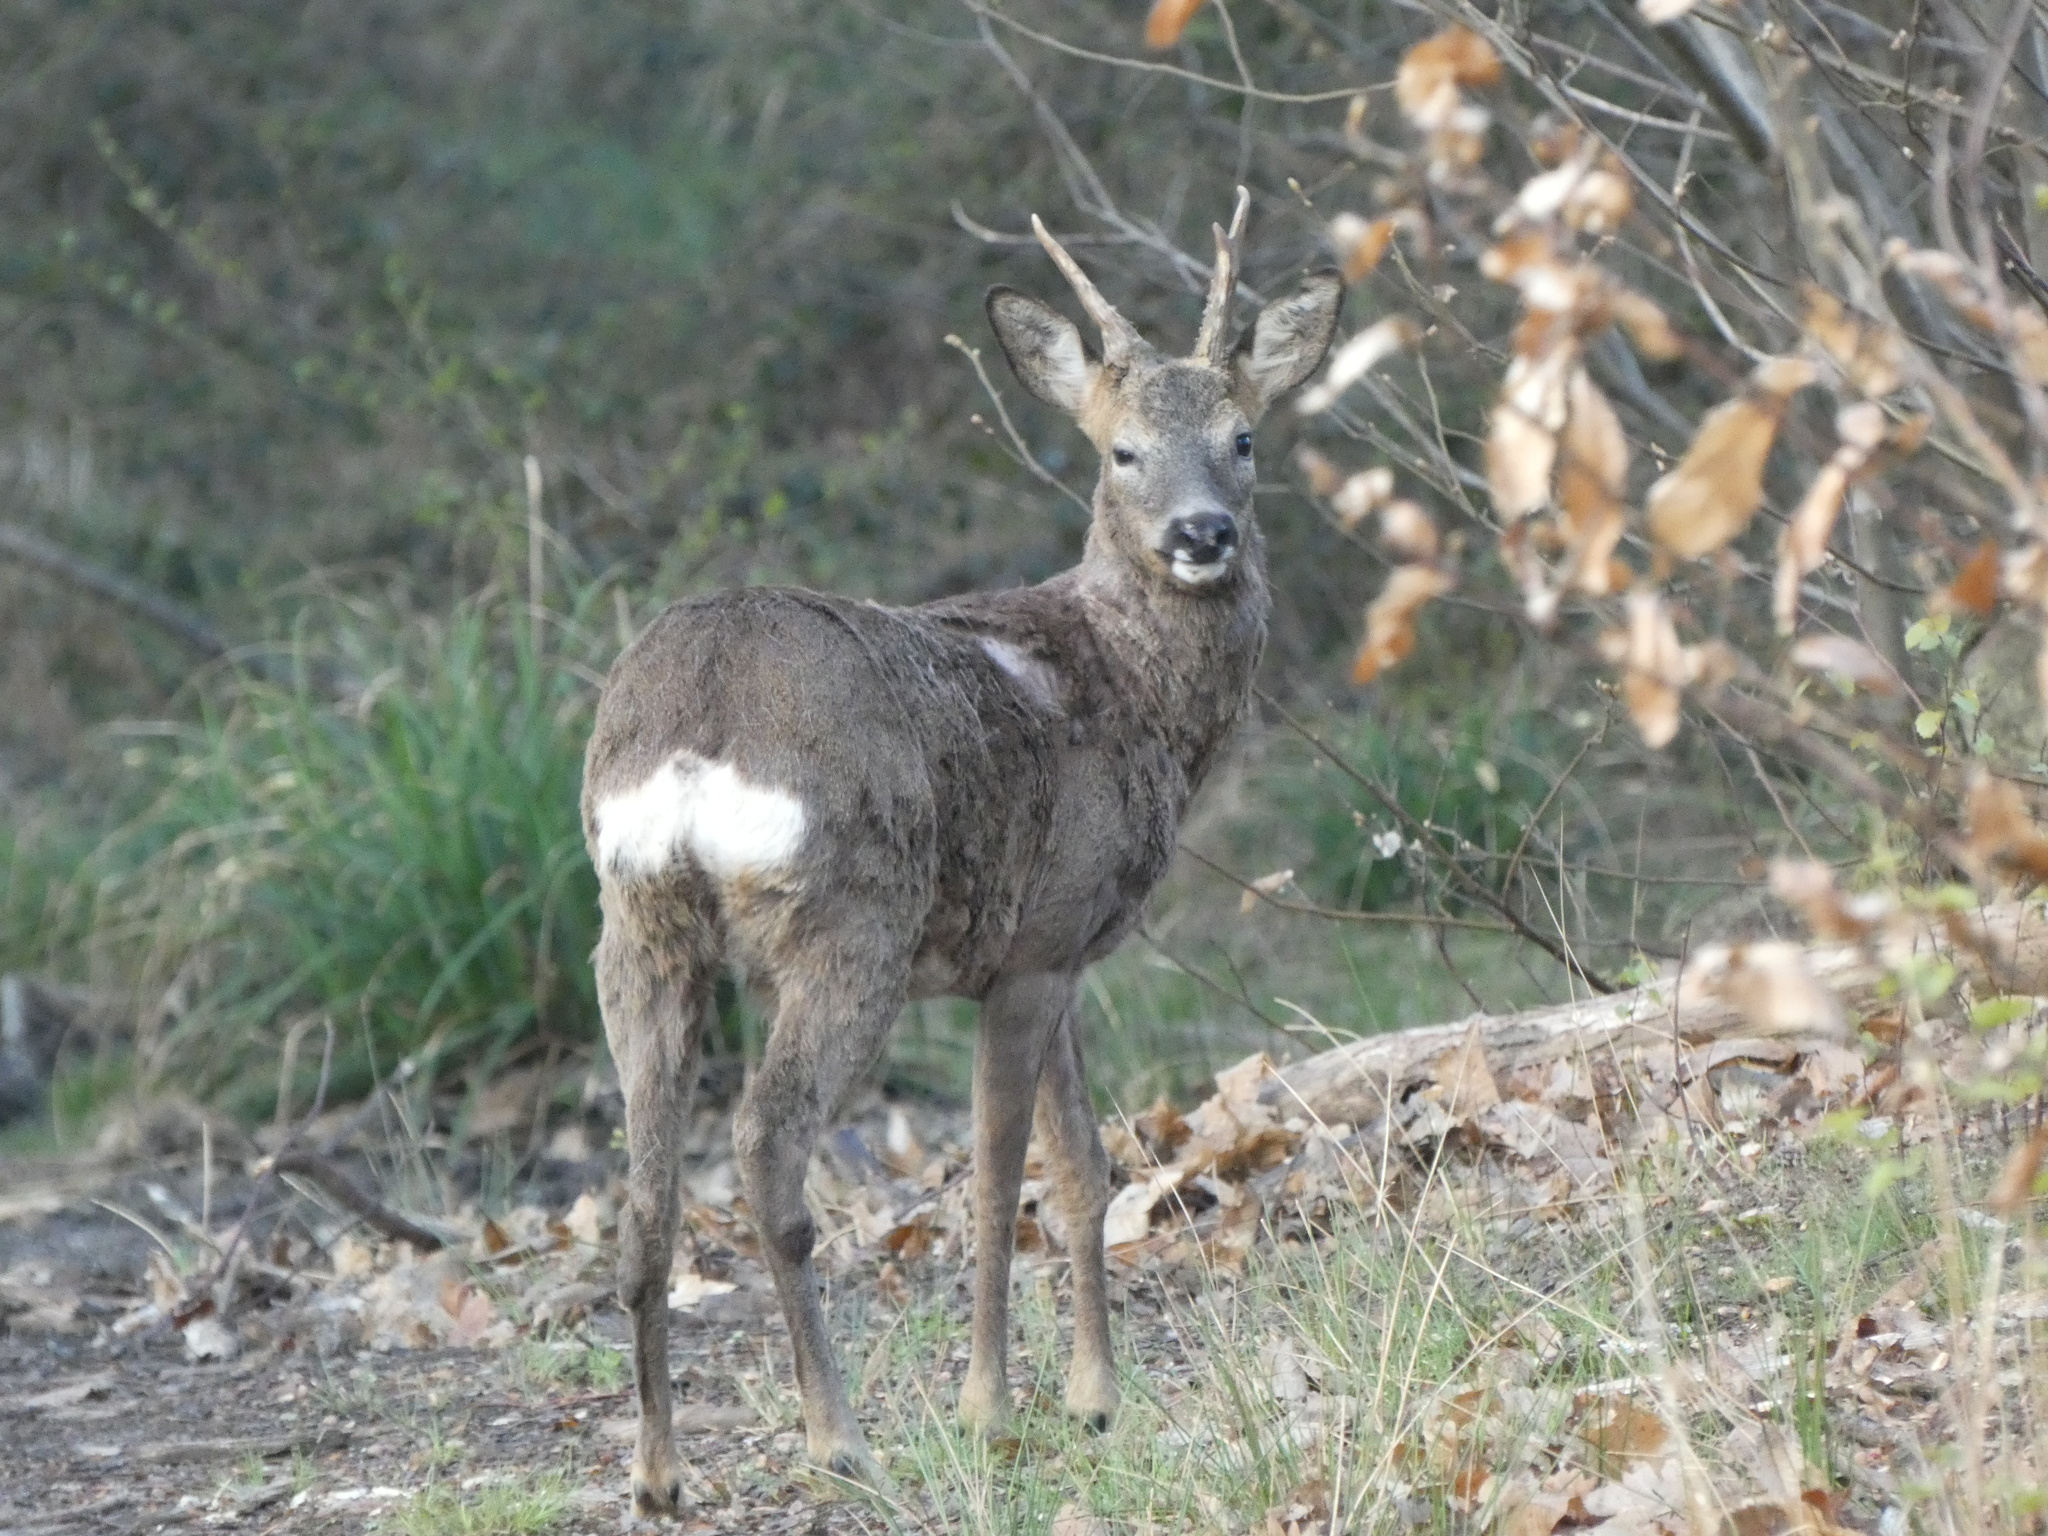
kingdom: Animalia
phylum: Chordata
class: Mammalia
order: Artiodactyla
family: Cervidae
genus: Capreolus
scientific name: Capreolus capreolus
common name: Western roe deer
